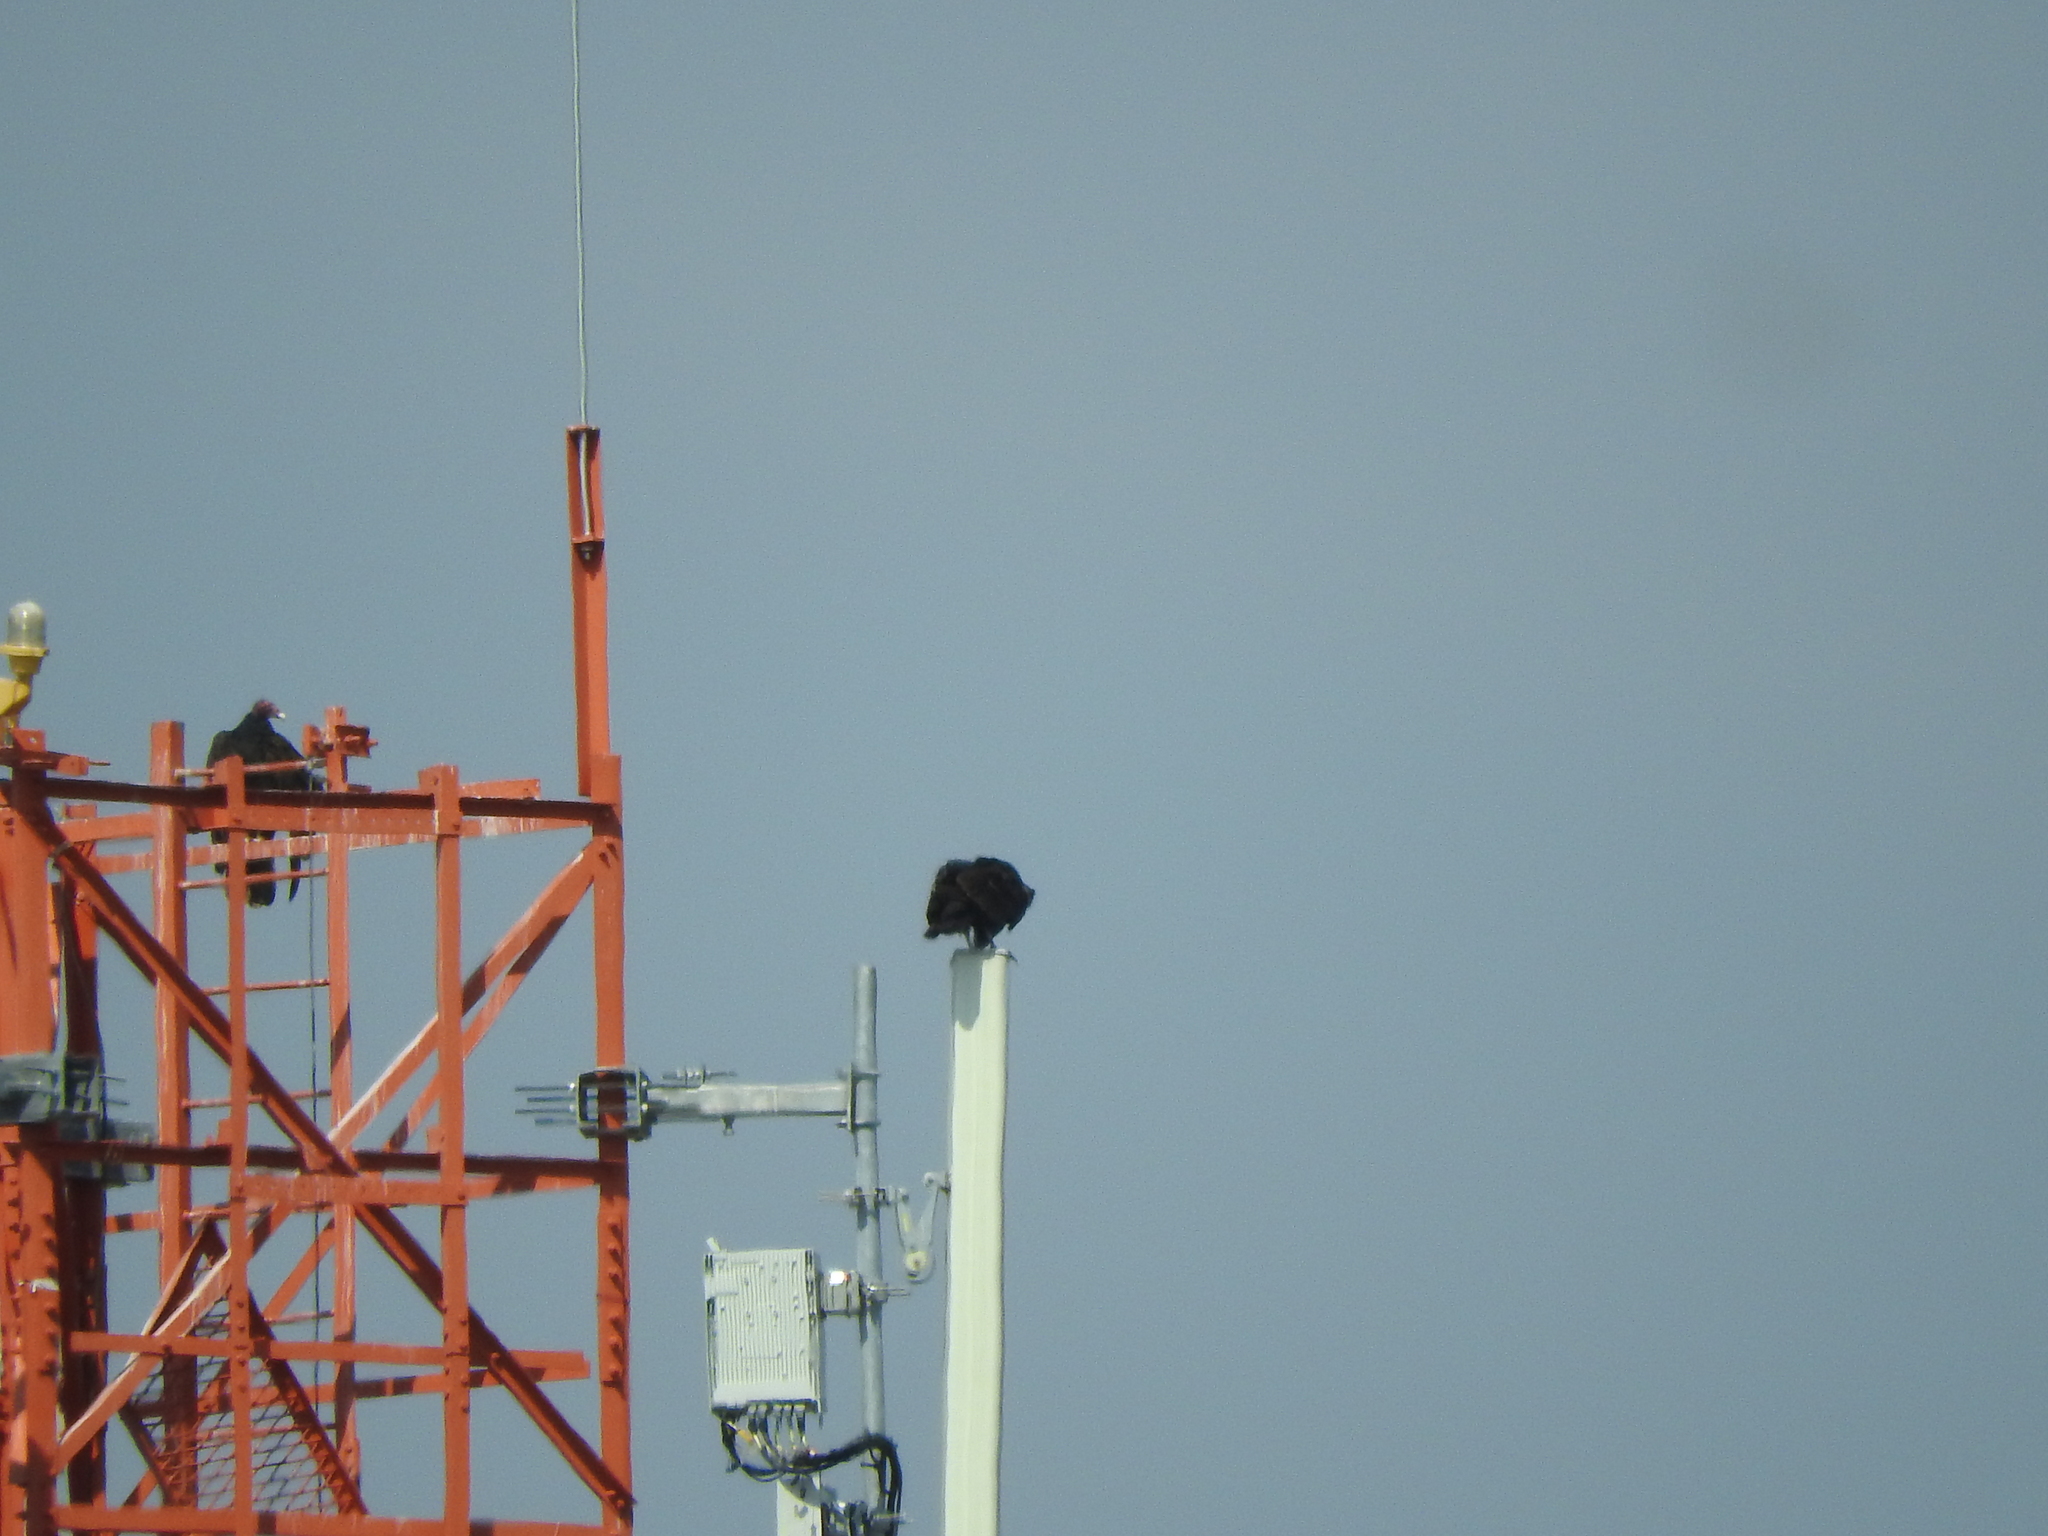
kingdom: Animalia
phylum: Chordata
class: Aves
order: Accipitriformes
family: Cathartidae
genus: Cathartes
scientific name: Cathartes aura
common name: Turkey vulture
